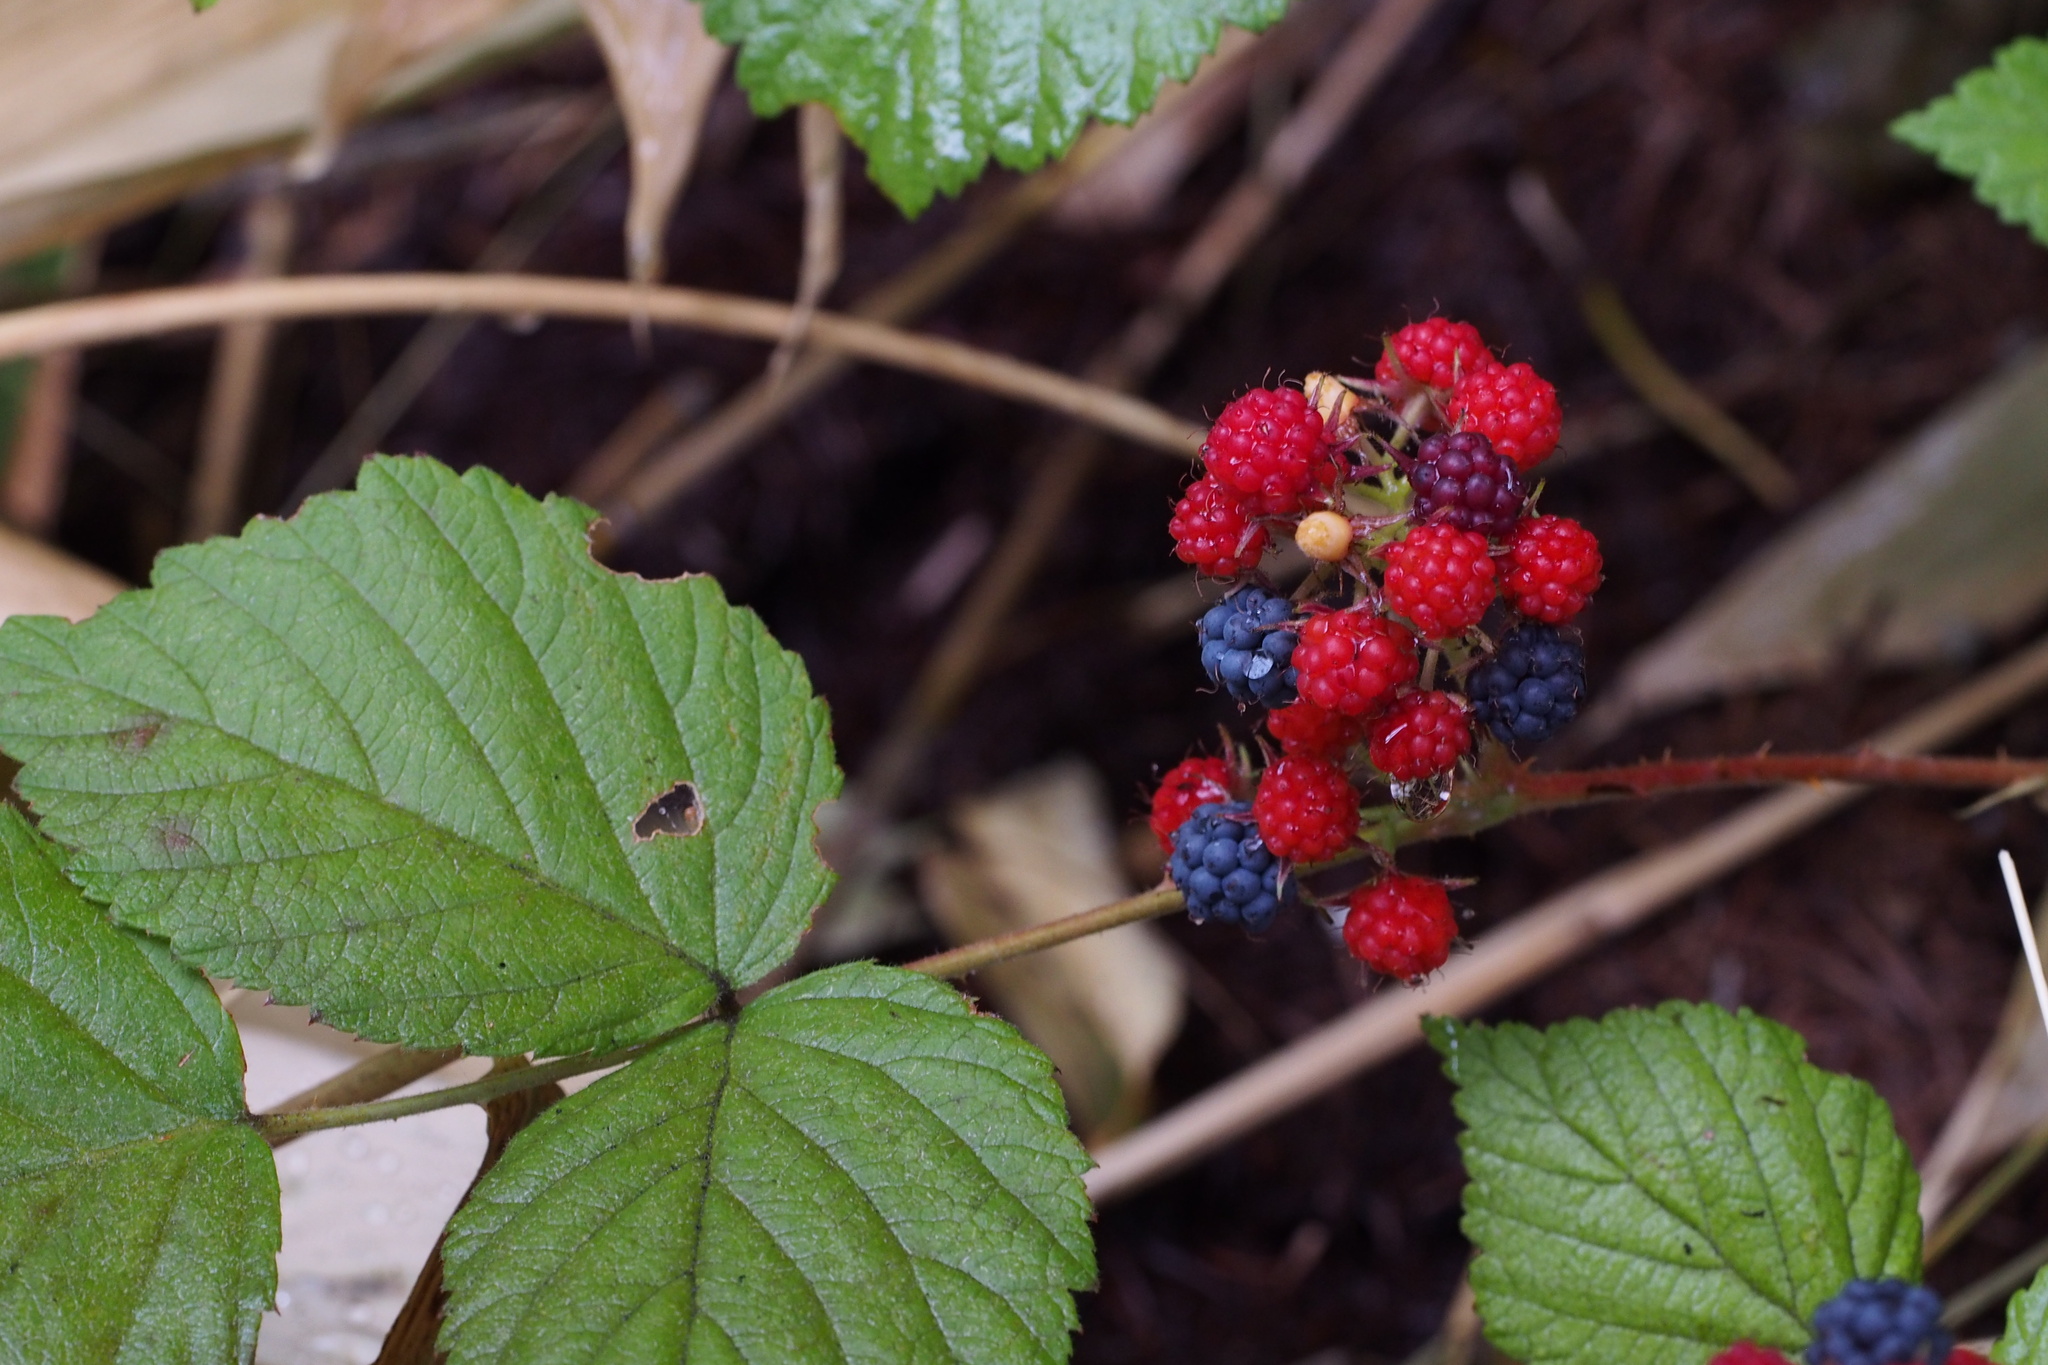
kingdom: Plantae
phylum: Tracheophyta
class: Magnoliopsida
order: Rosales
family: Rosaceae
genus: Rubus
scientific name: Rubus mesogaeus
